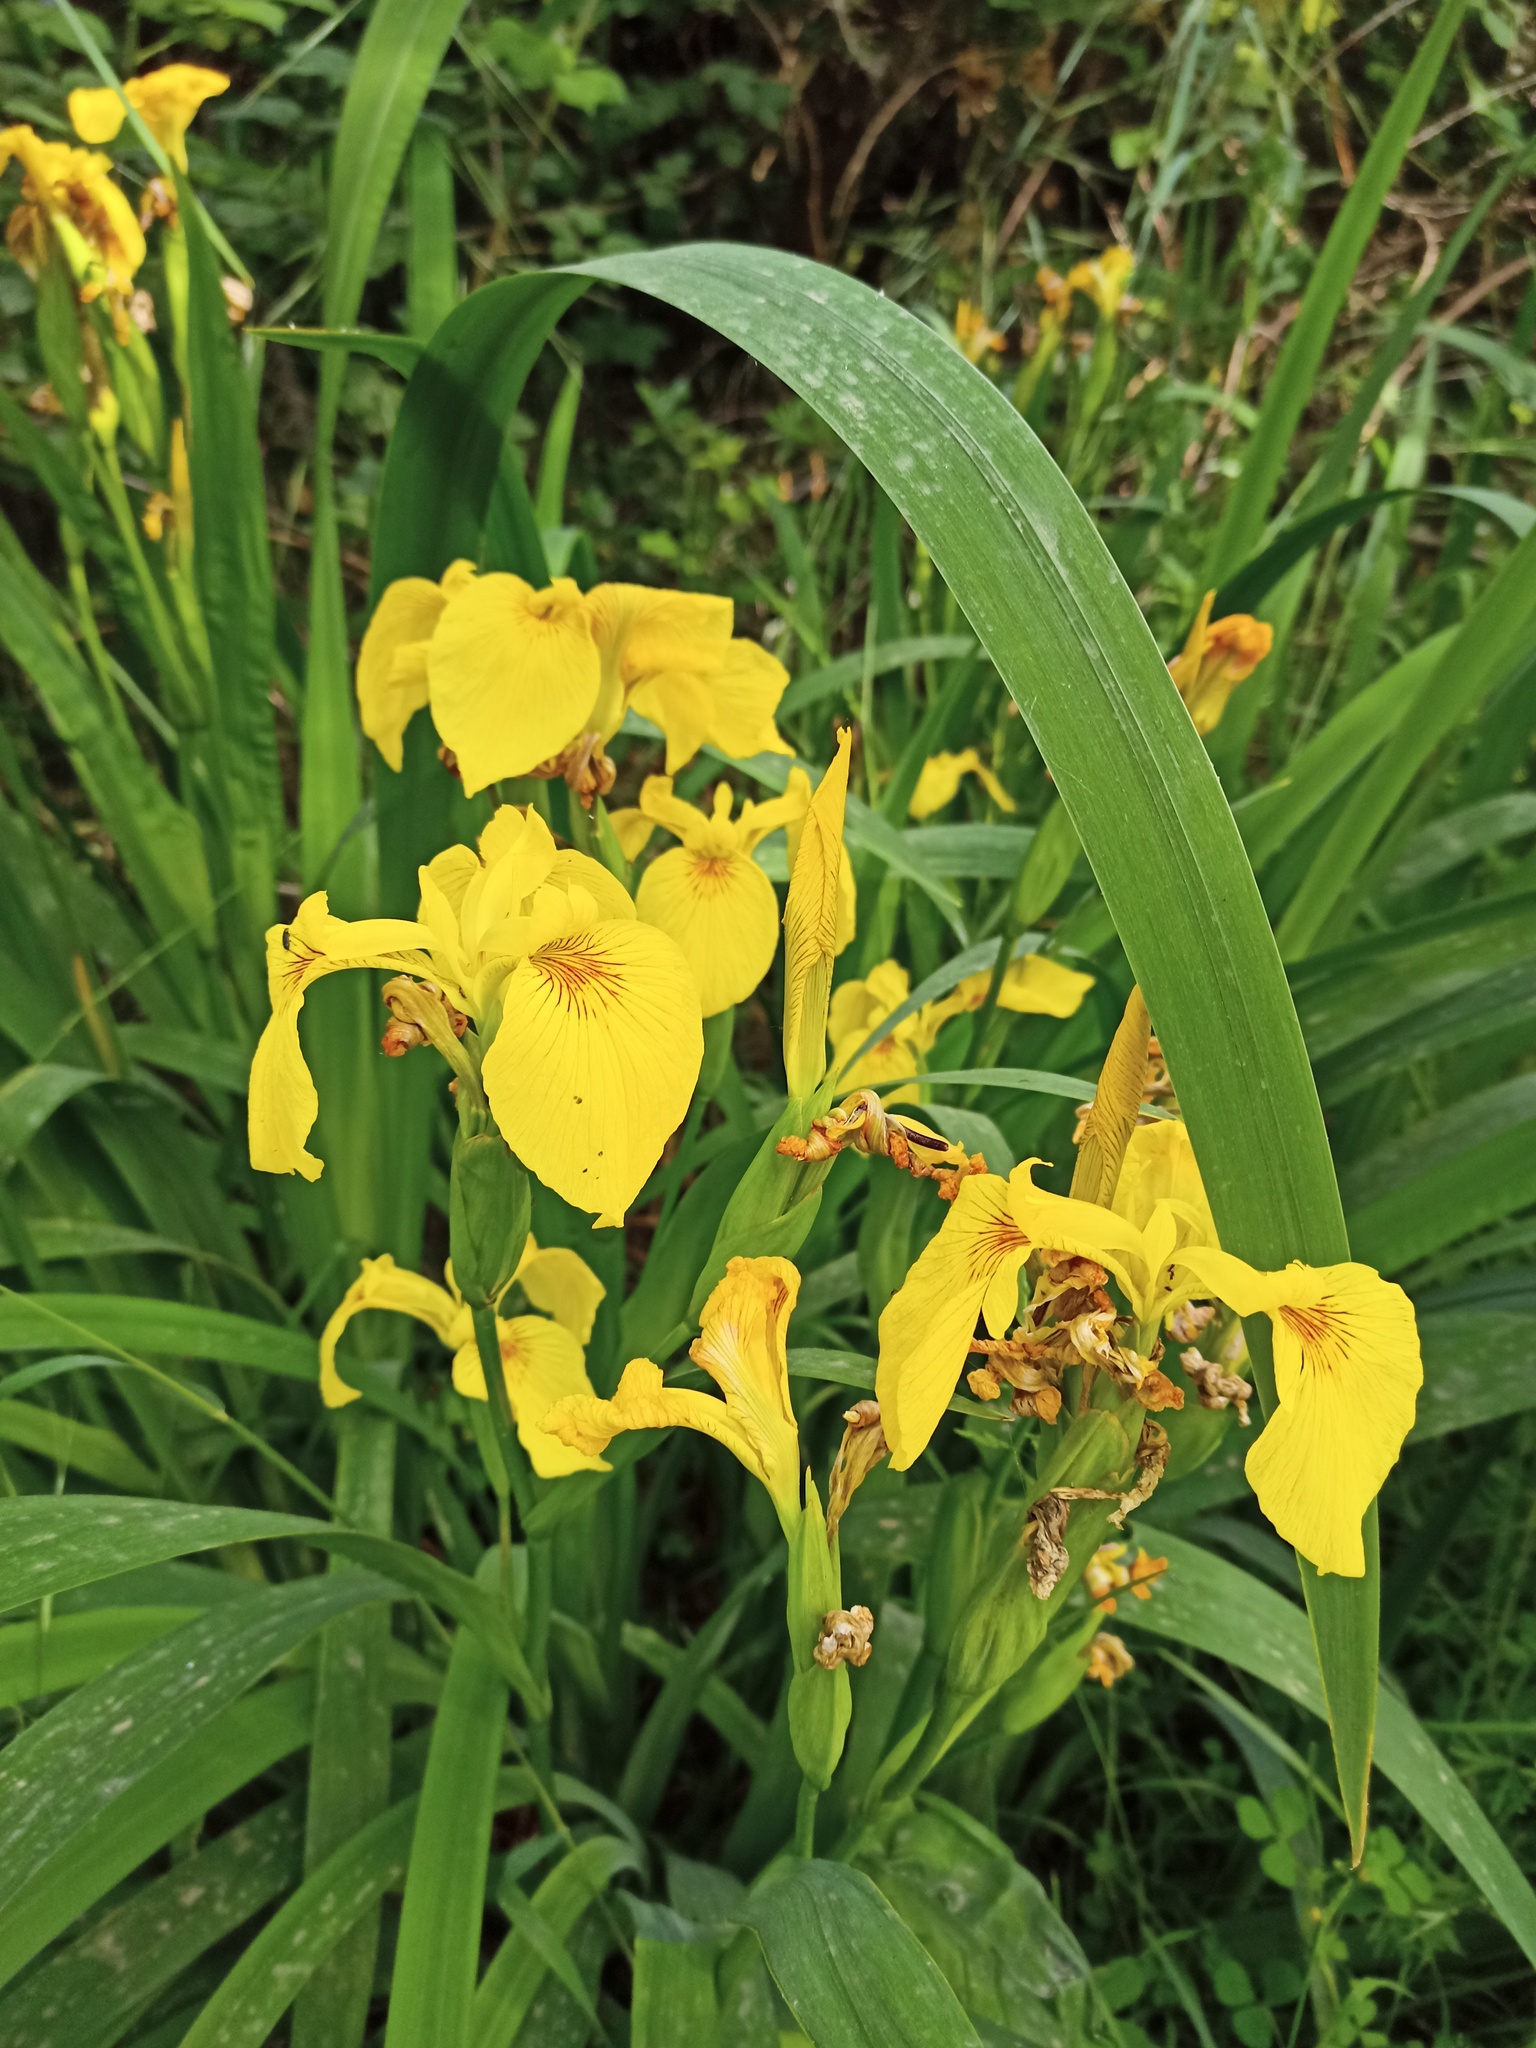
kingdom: Plantae
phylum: Tracheophyta
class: Liliopsida
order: Asparagales
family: Iridaceae
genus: Iris
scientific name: Iris pseudacorus
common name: Yellow flag
